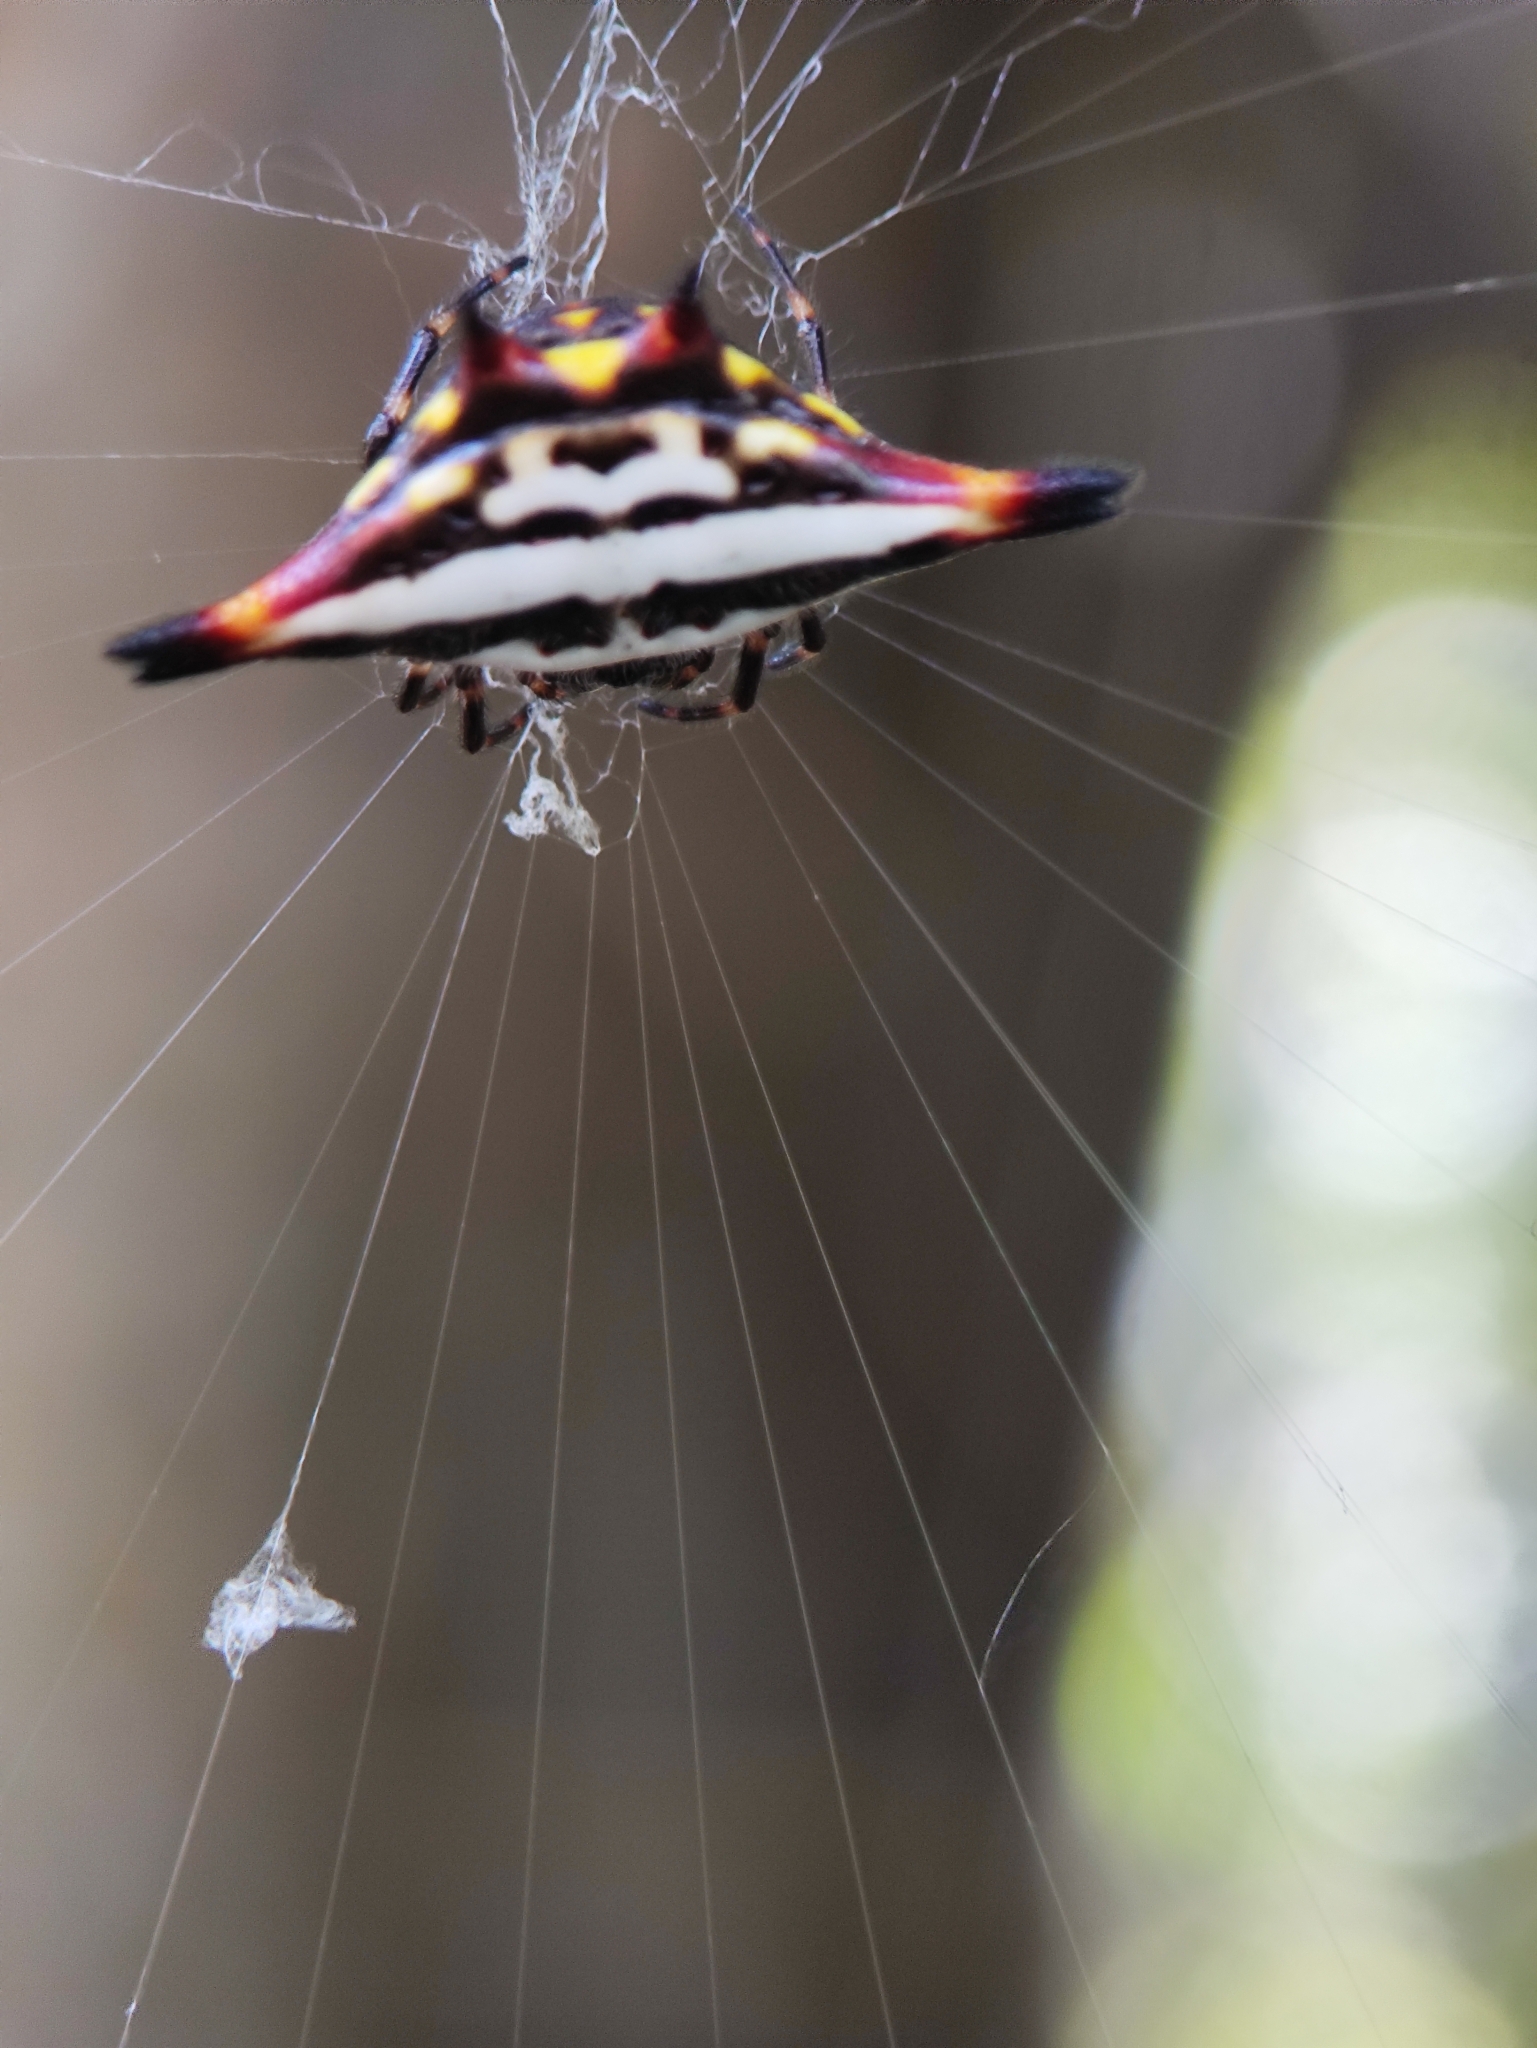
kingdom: Animalia
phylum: Arthropoda
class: Arachnida
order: Araneae
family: Araneidae
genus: Gasteracantha
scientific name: Gasteracantha geminata
